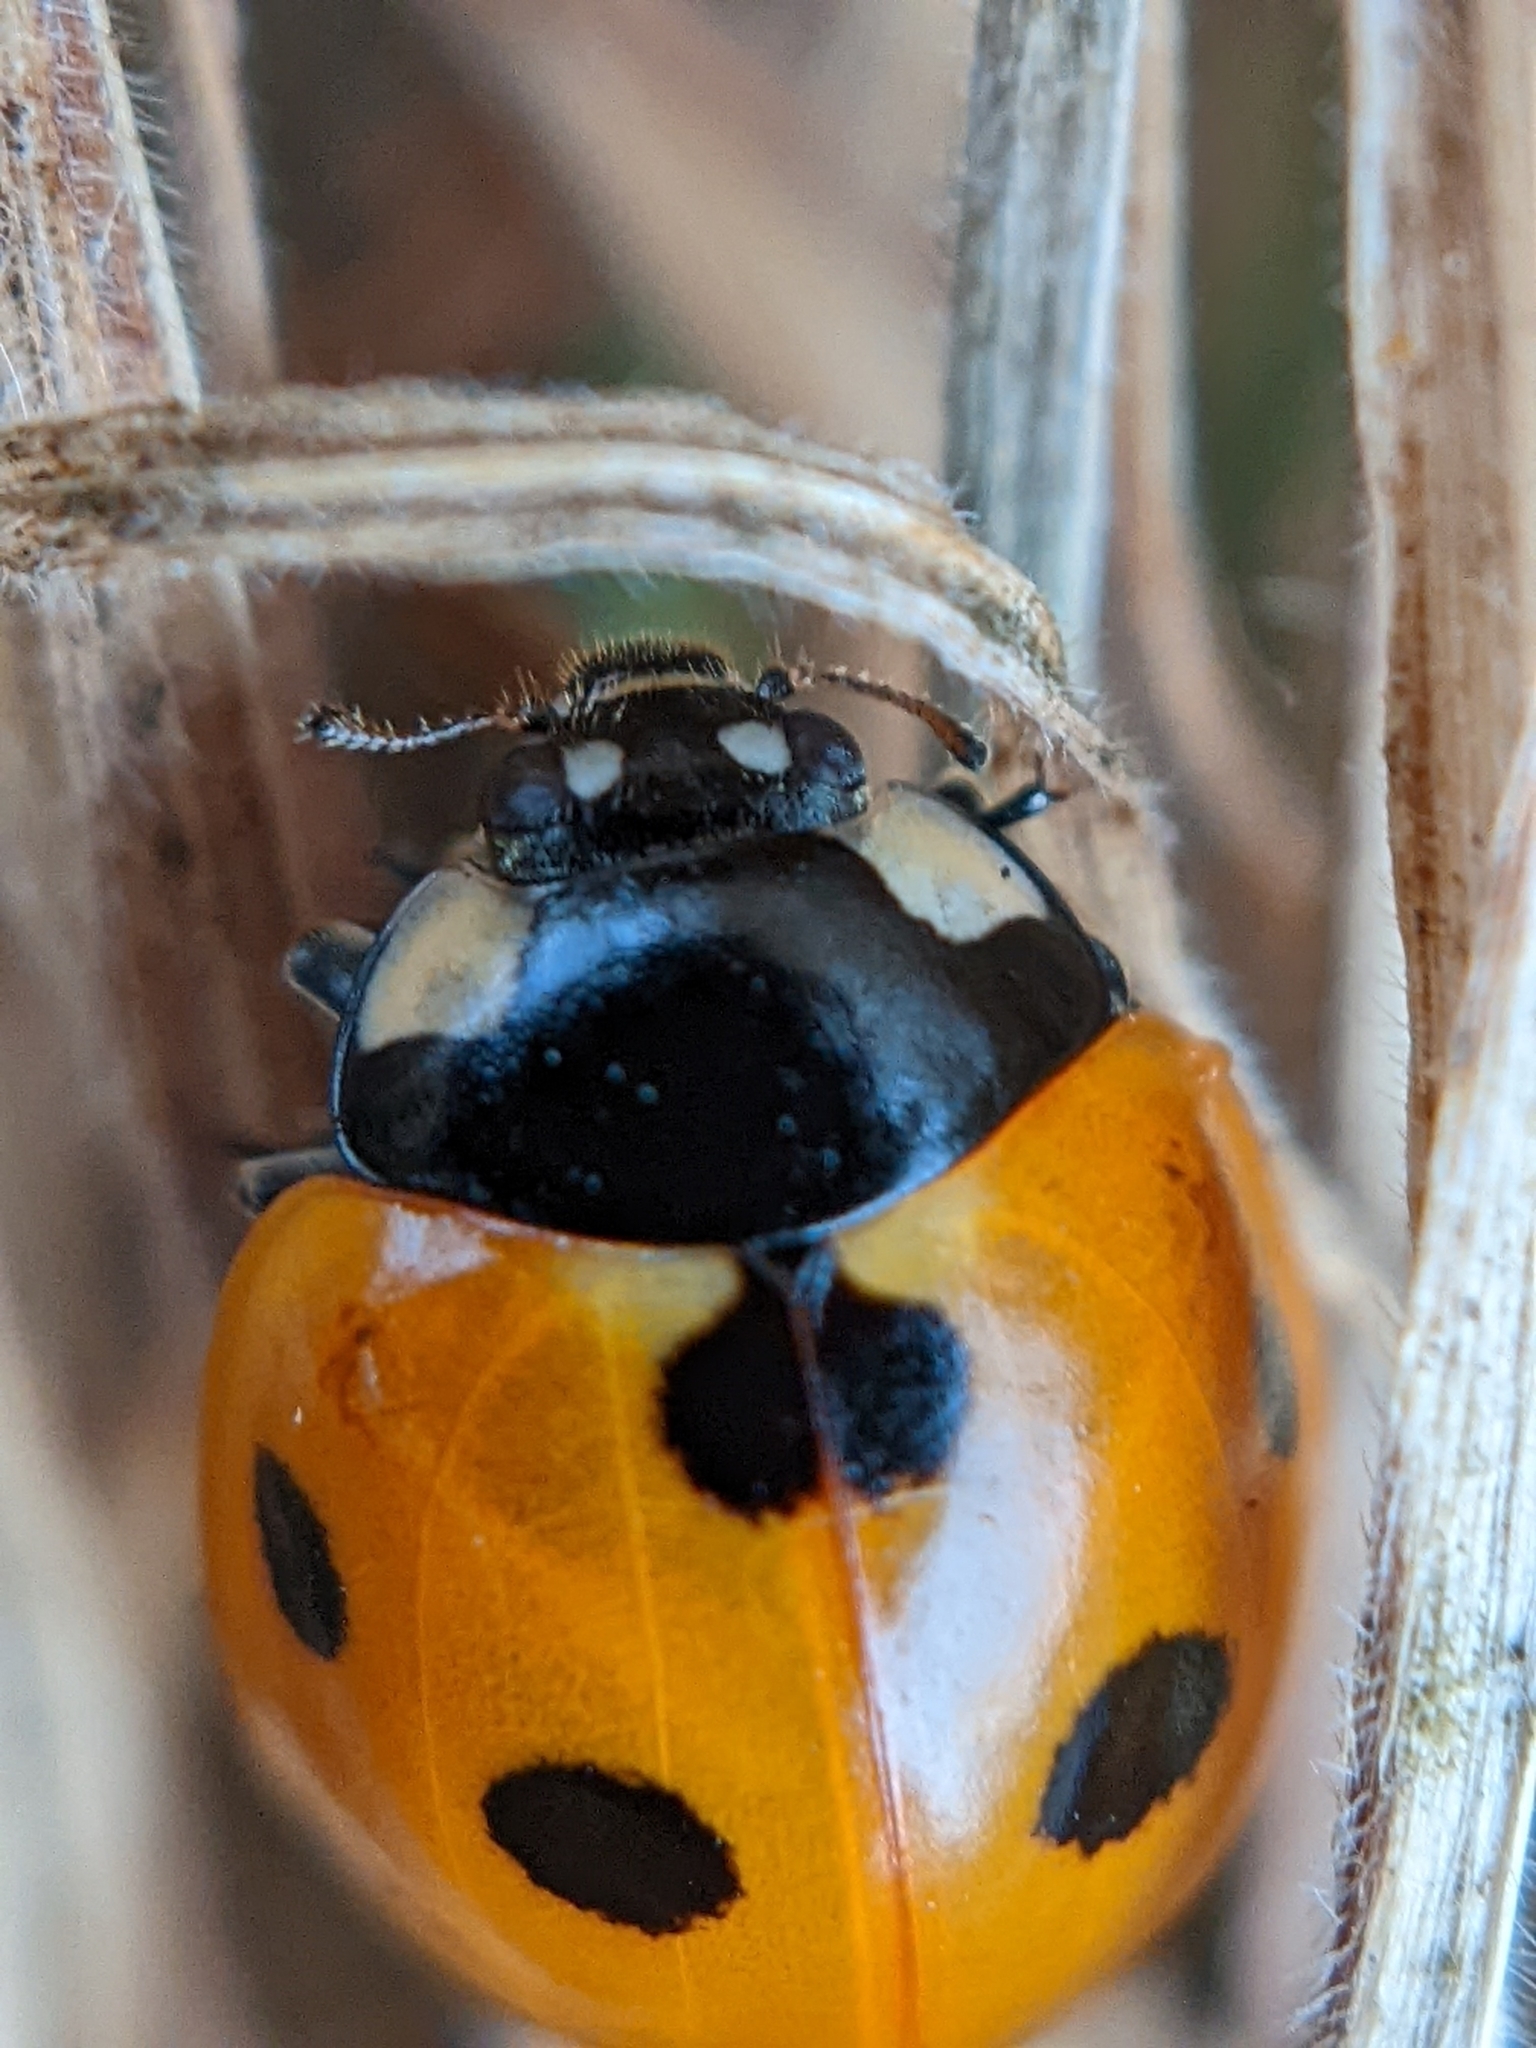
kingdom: Animalia
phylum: Arthropoda
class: Insecta
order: Coleoptera
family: Coccinellidae
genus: Coccinella
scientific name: Coccinella septempunctata
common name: Sevenspotted lady beetle
